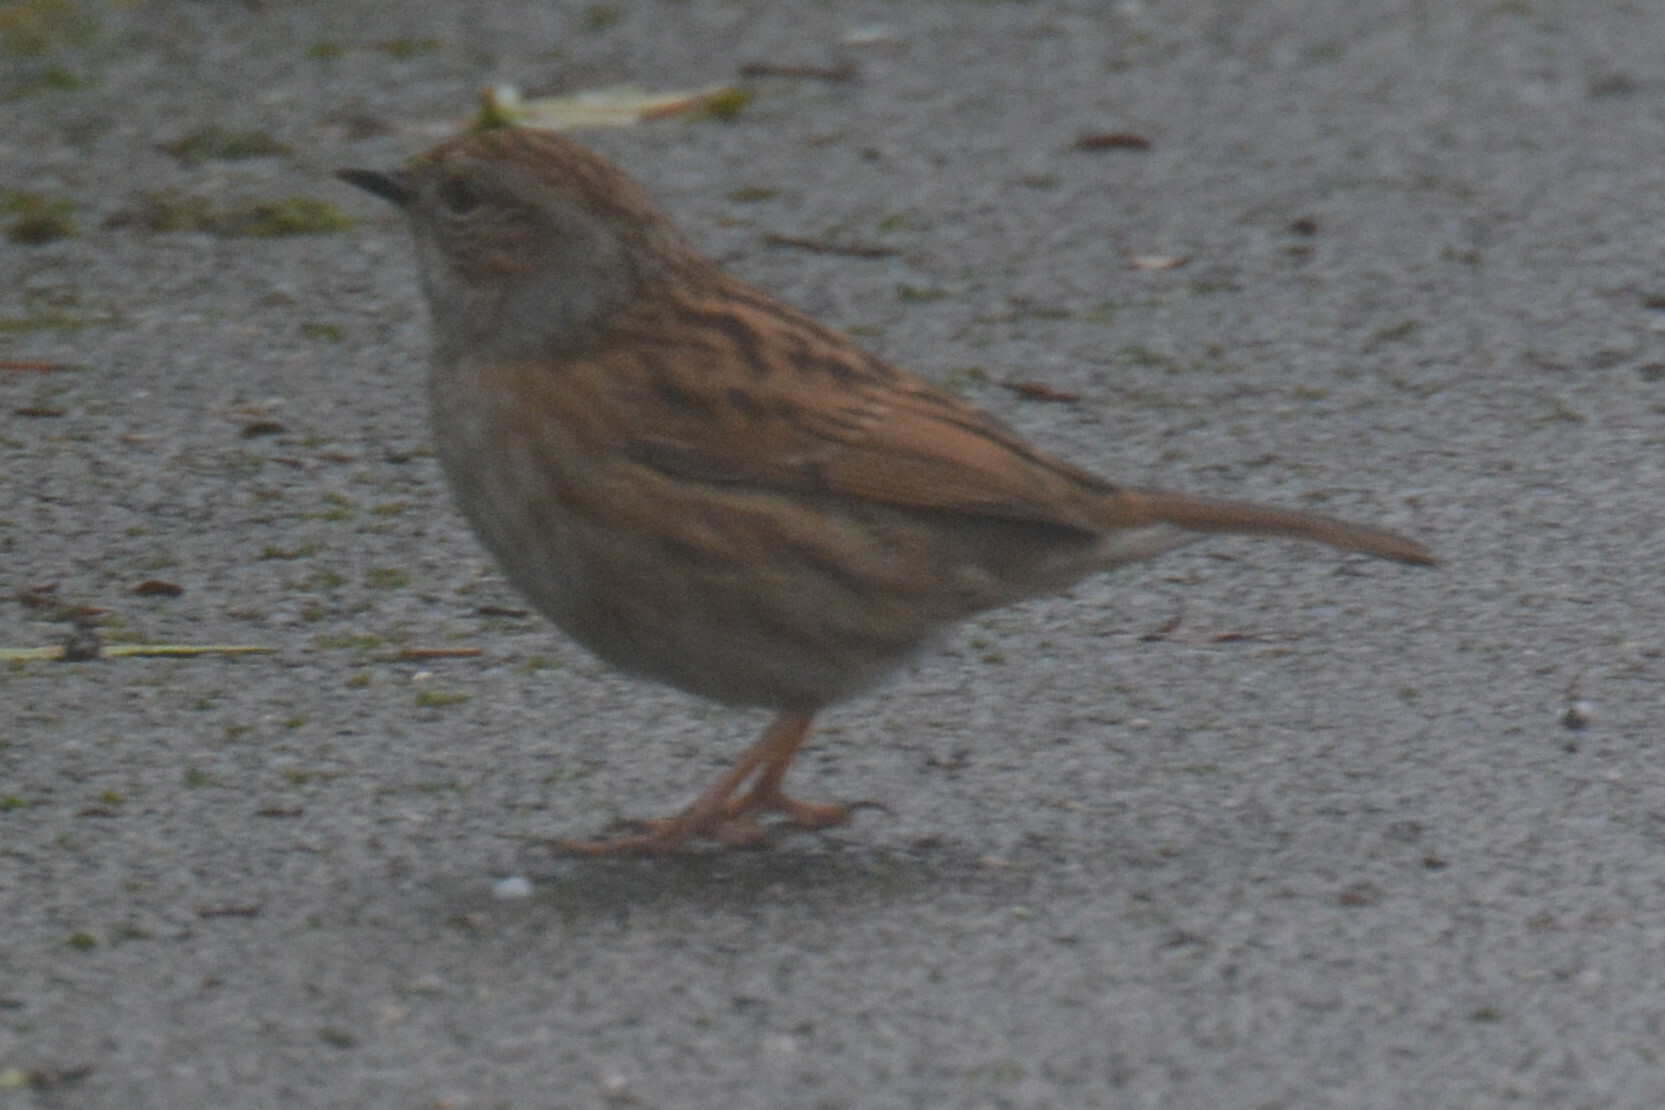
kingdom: Animalia
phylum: Chordata
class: Aves
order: Passeriformes
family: Prunellidae
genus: Prunella
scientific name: Prunella modularis
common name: Dunnock
